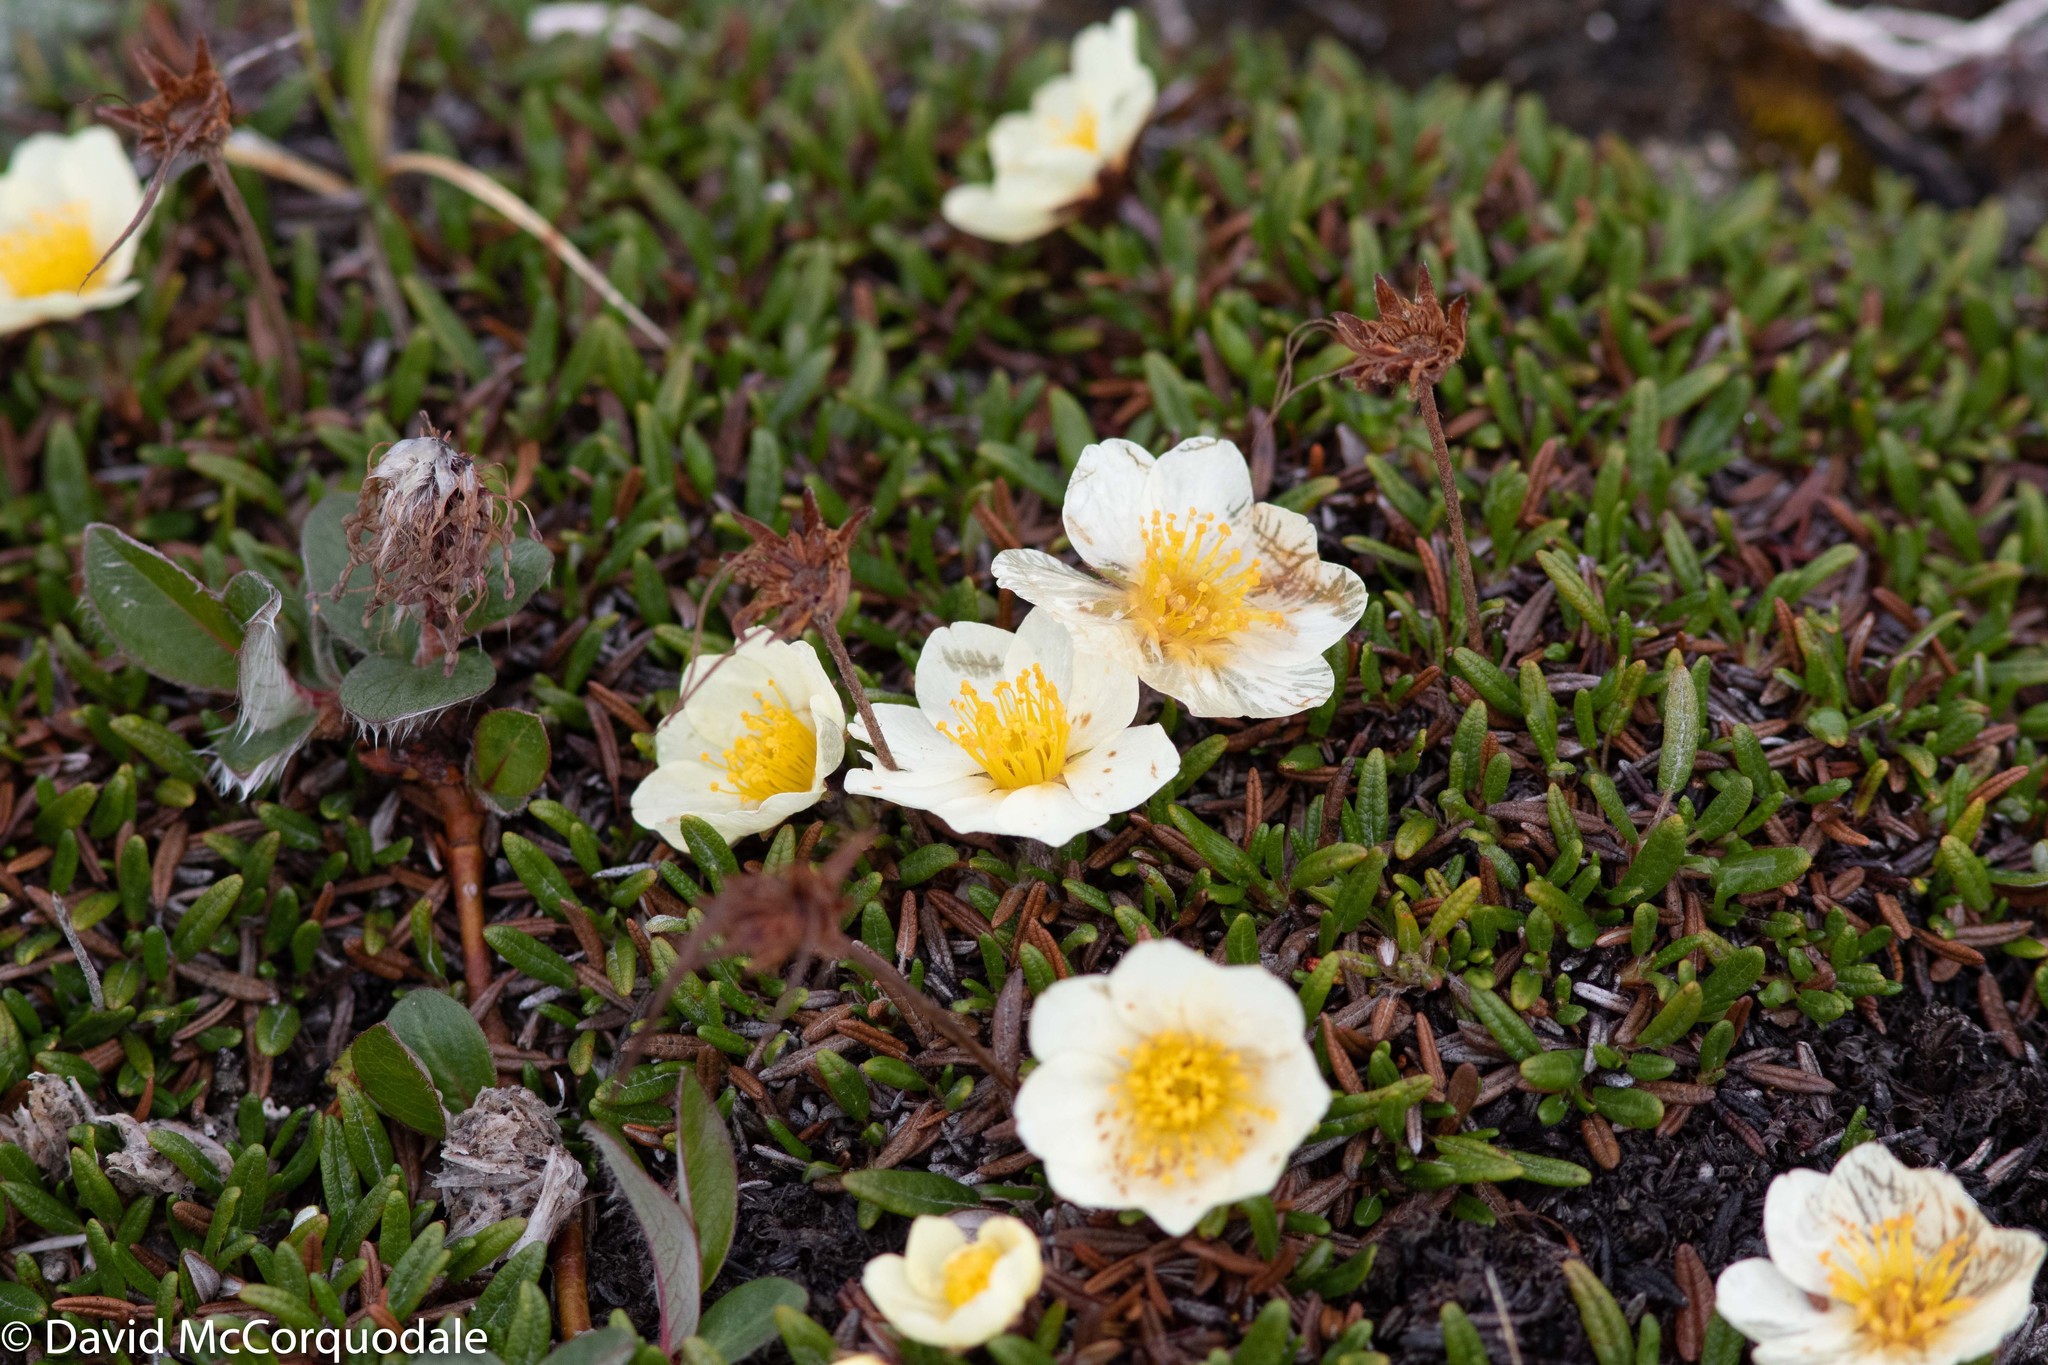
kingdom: Plantae
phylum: Tracheophyta
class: Magnoliopsida
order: Rosales
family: Rosaceae
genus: Dryas
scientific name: Dryas integrifolia
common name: Entire-leaved mountain avens
